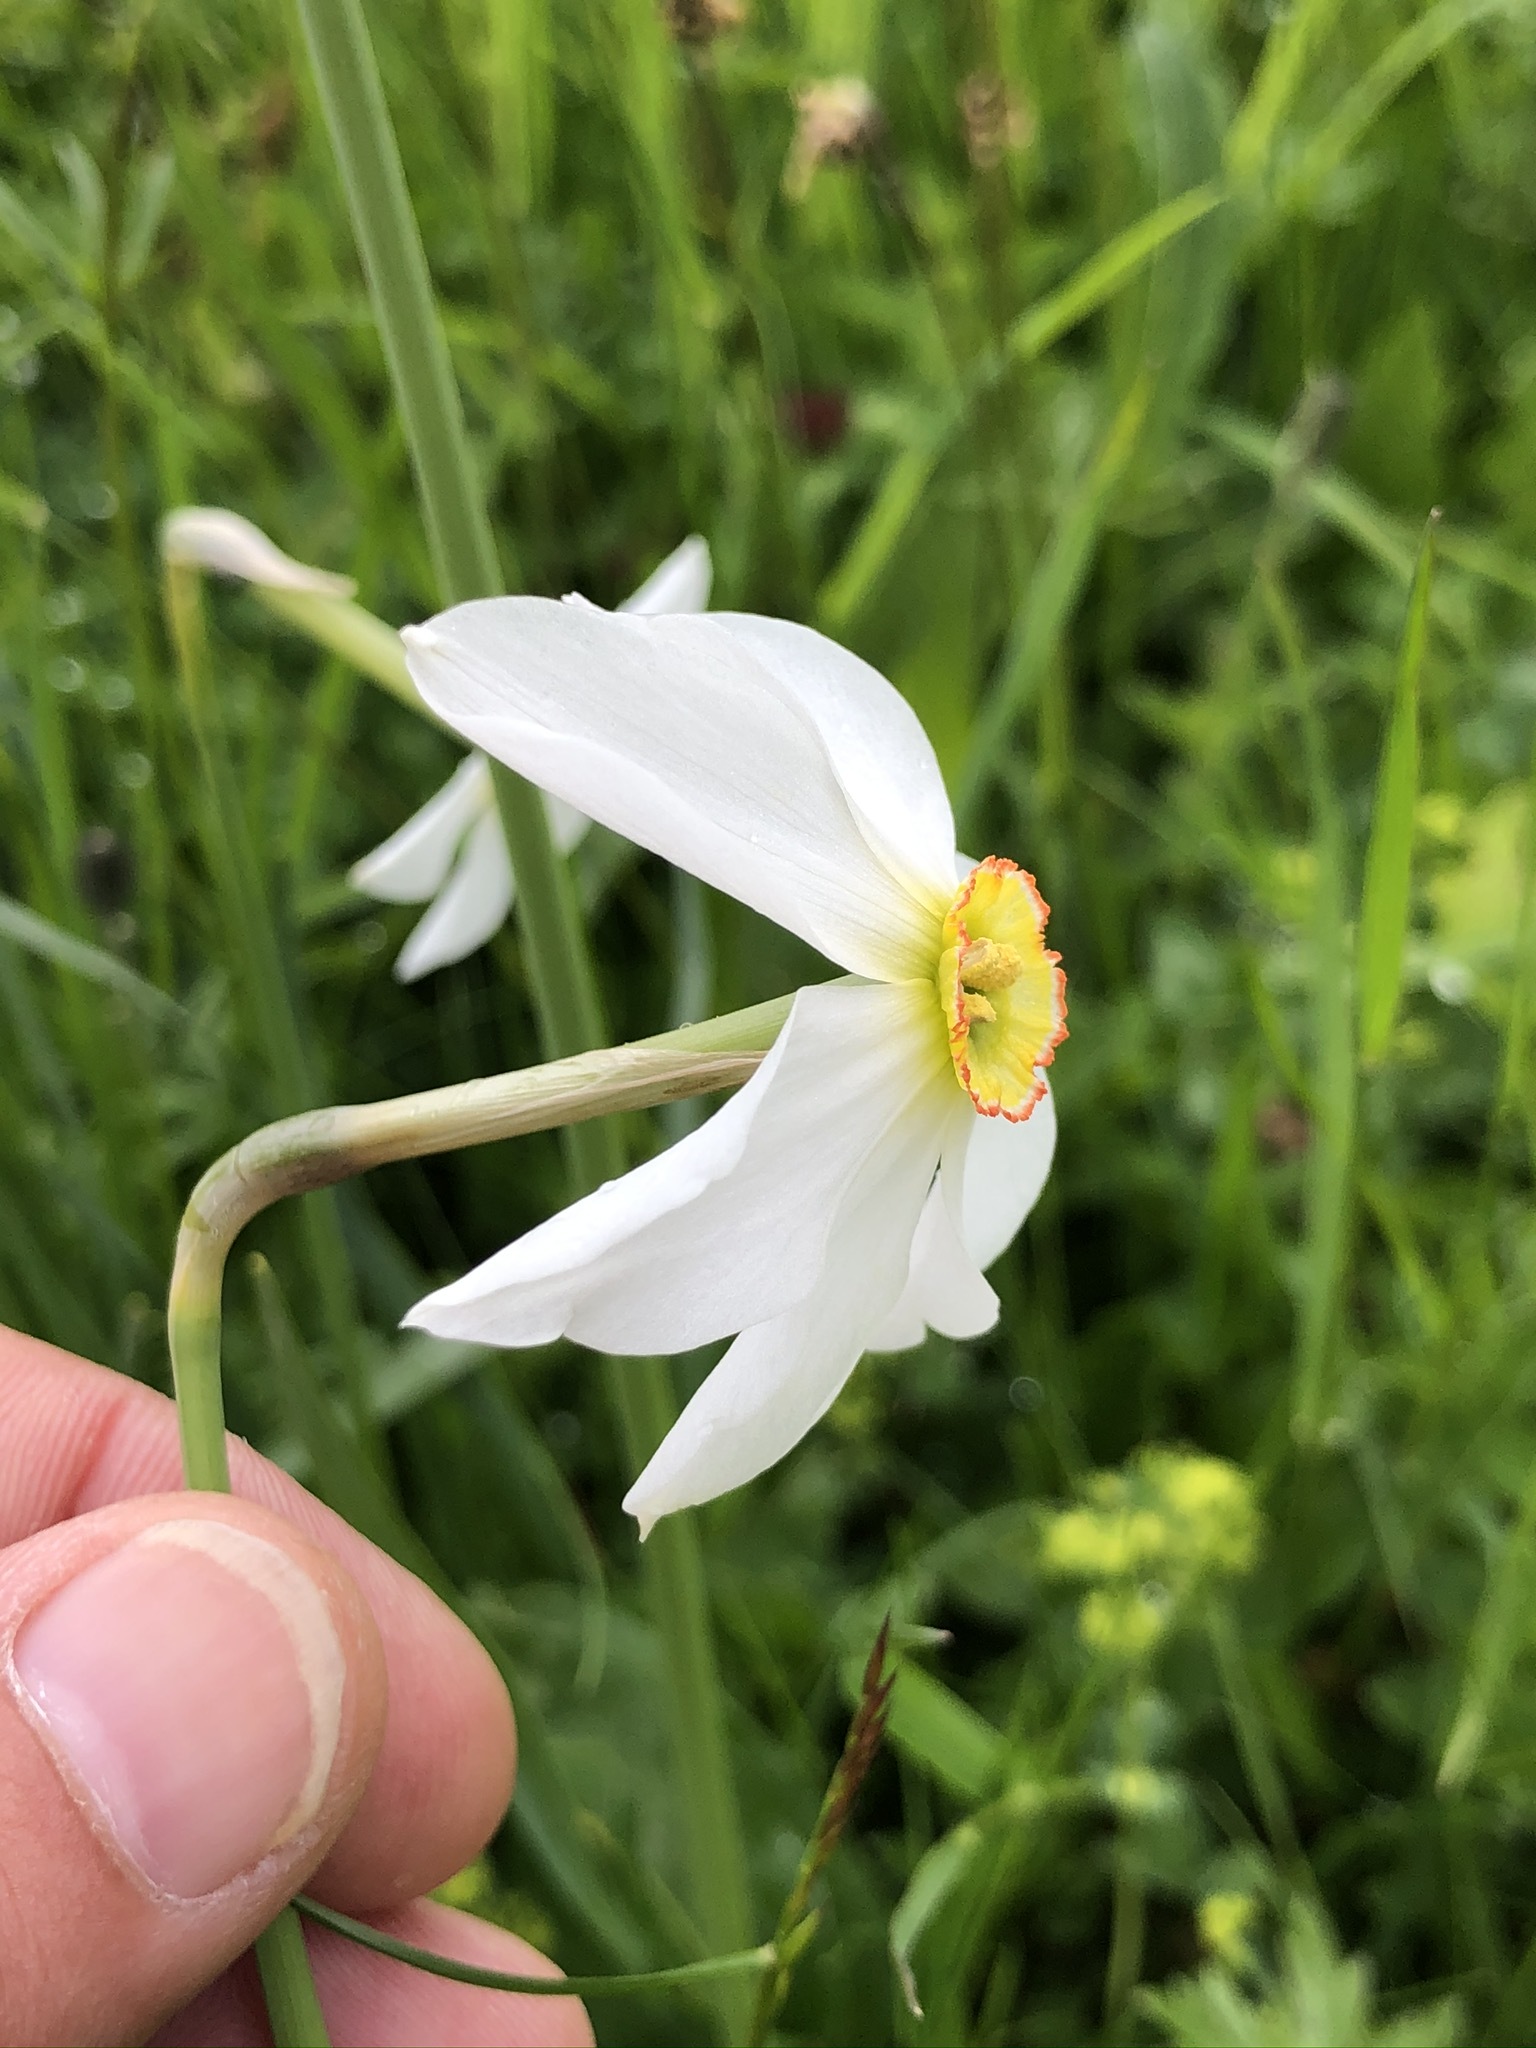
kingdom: Plantae
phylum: Tracheophyta
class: Liliopsida
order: Asparagales
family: Amaryllidaceae
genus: Narcissus
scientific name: Narcissus poeticus
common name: Pheasant's-eye daffodil
